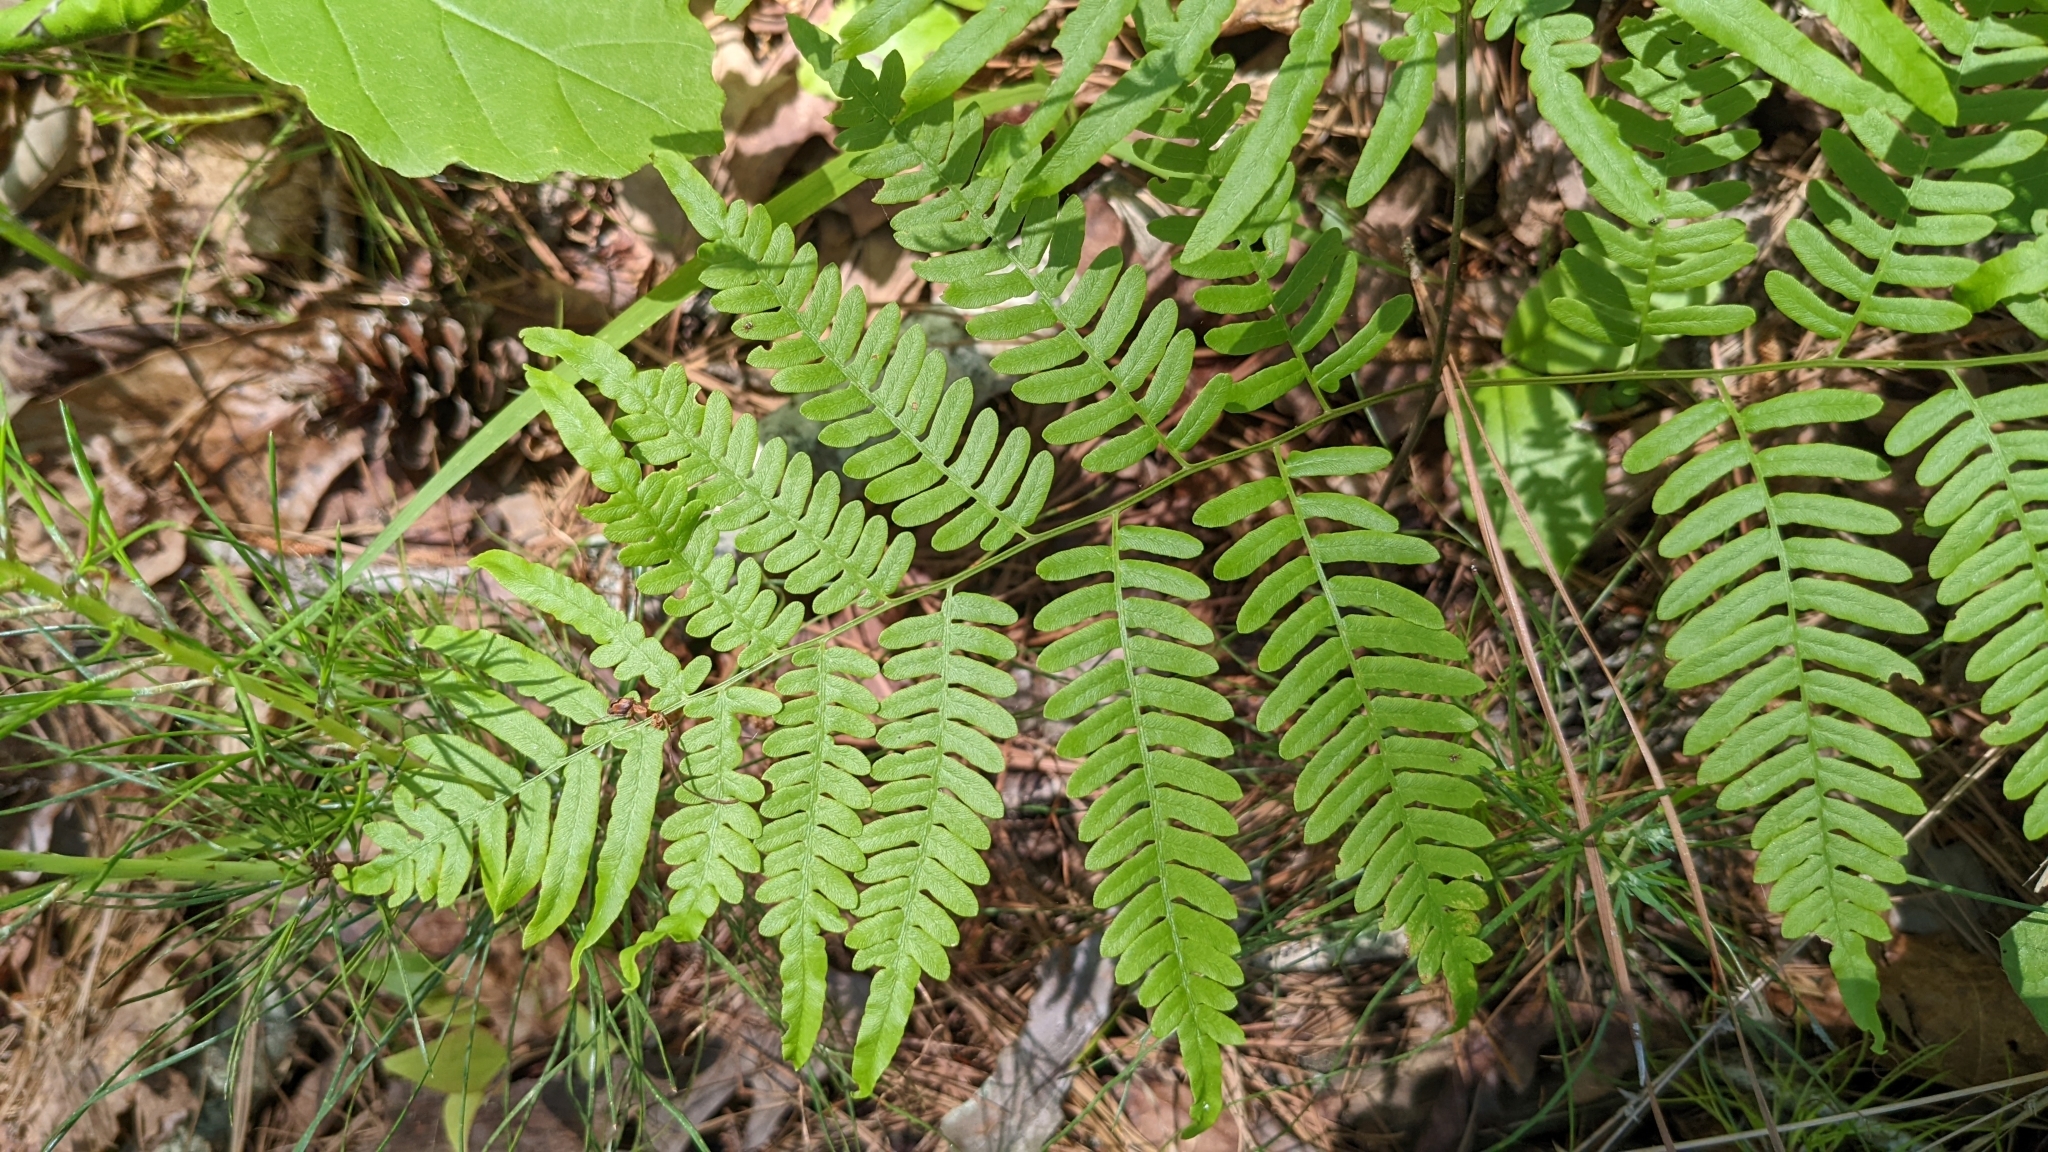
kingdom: Plantae
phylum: Tracheophyta
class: Polypodiopsida
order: Polypodiales
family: Dennstaedtiaceae
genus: Pteridium
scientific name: Pteridium
